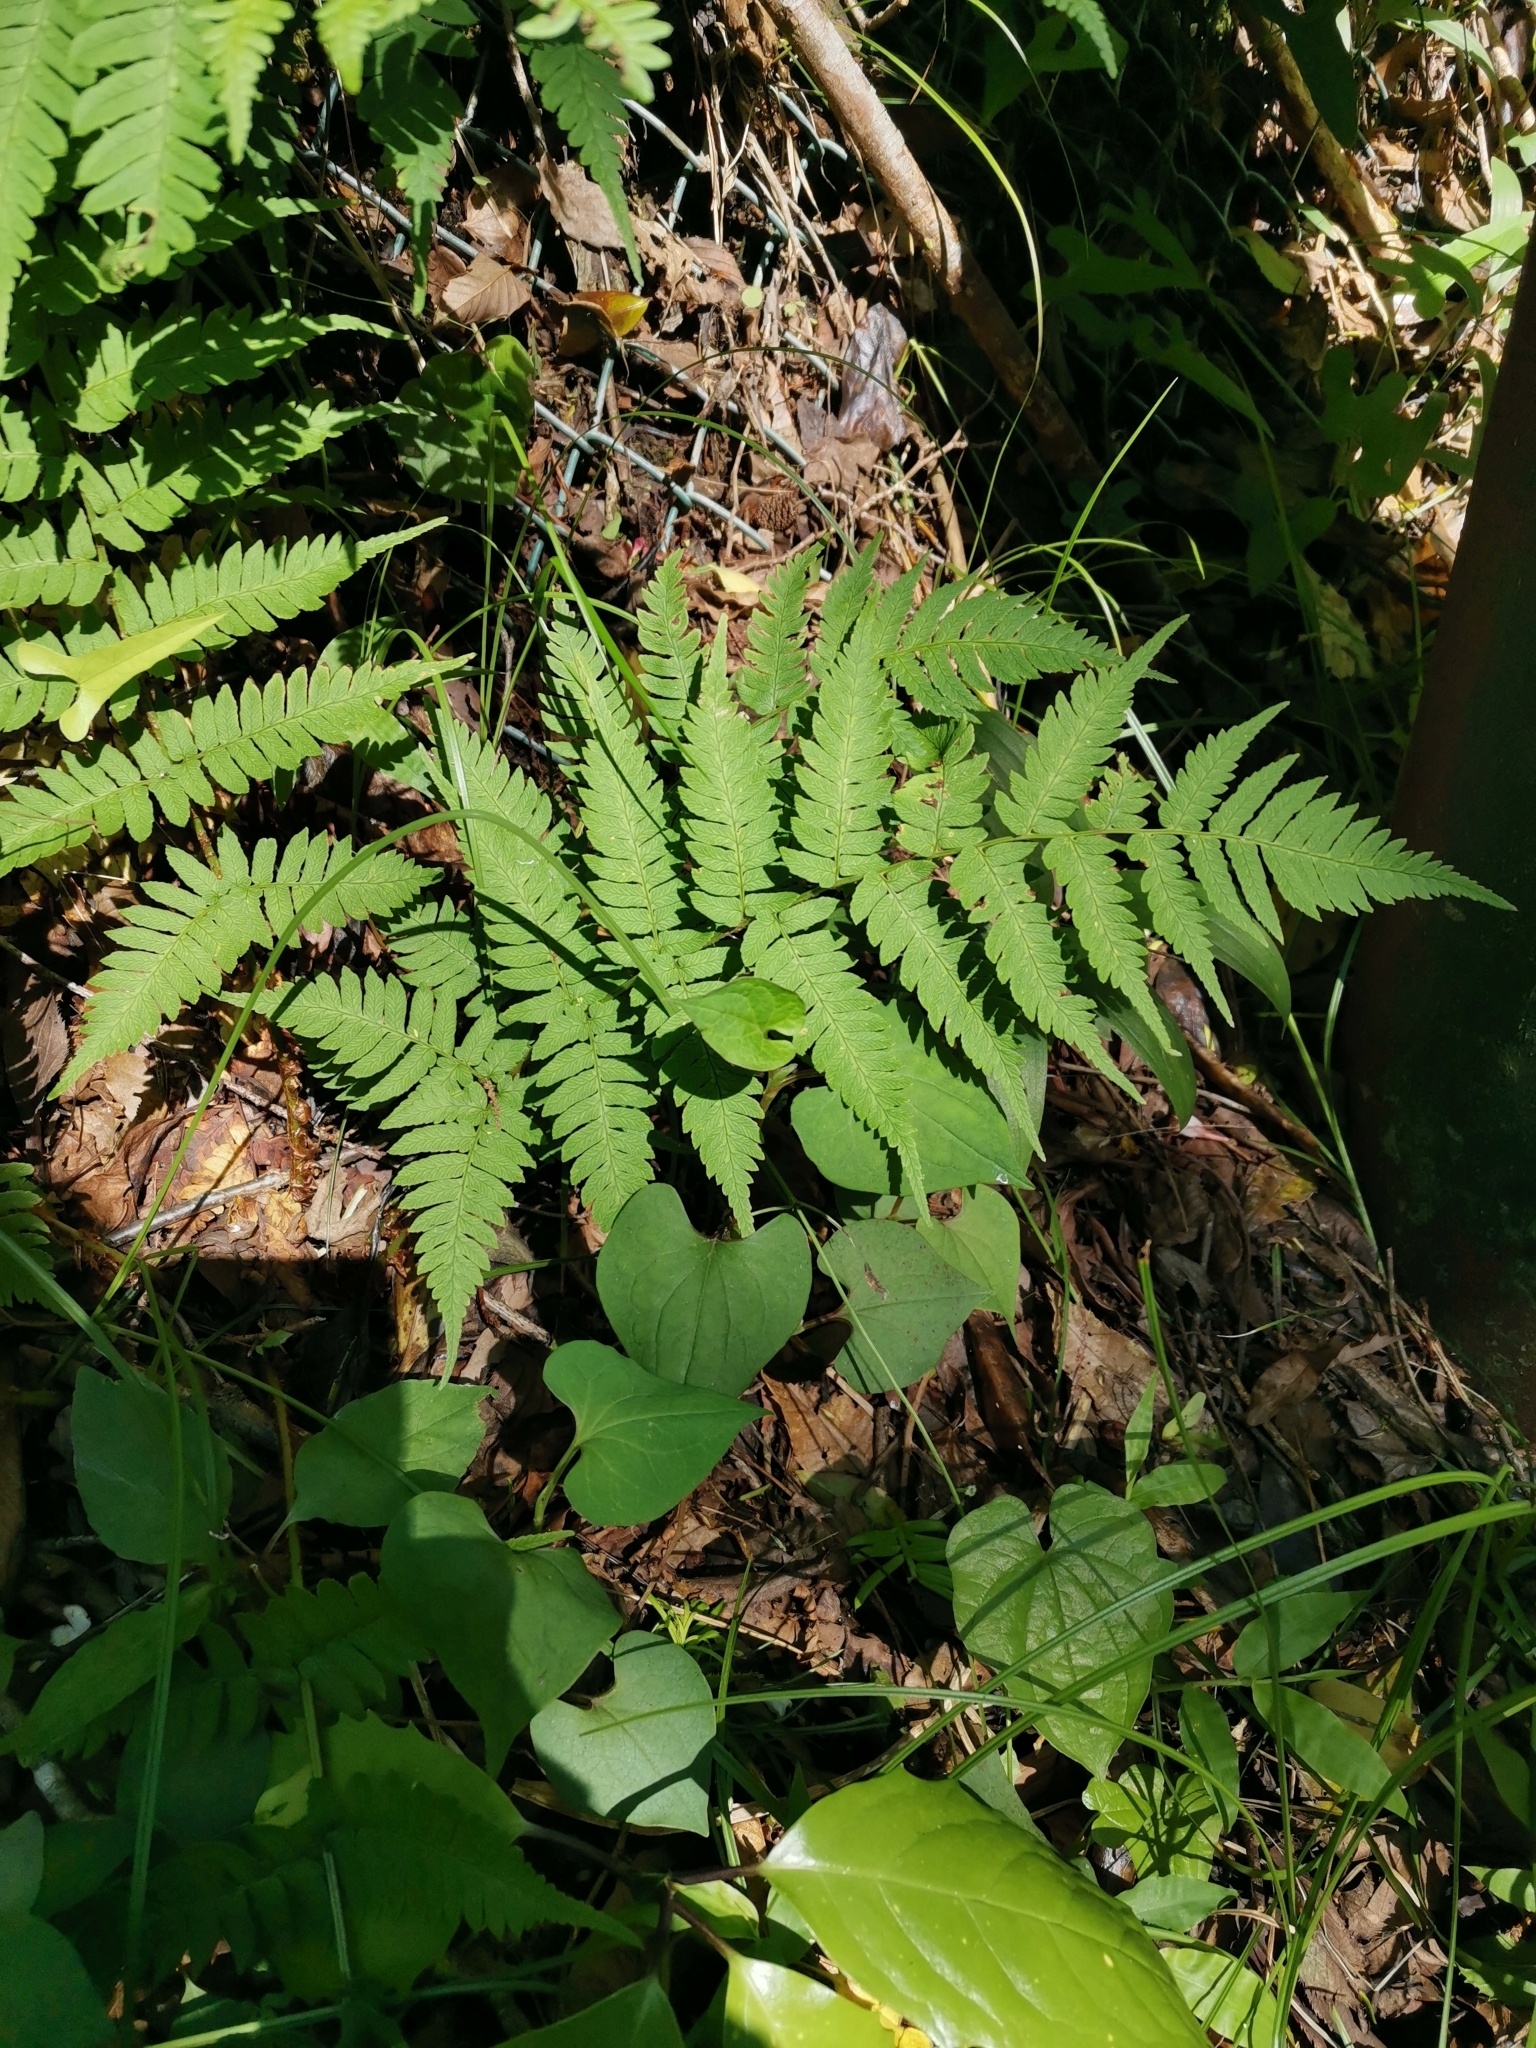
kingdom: Plantae
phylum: Tracheophyta
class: Polypodiopsida
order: Polypodiales
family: Dryopteridaceae
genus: Dryopteris
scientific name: Dryopteris lacera
